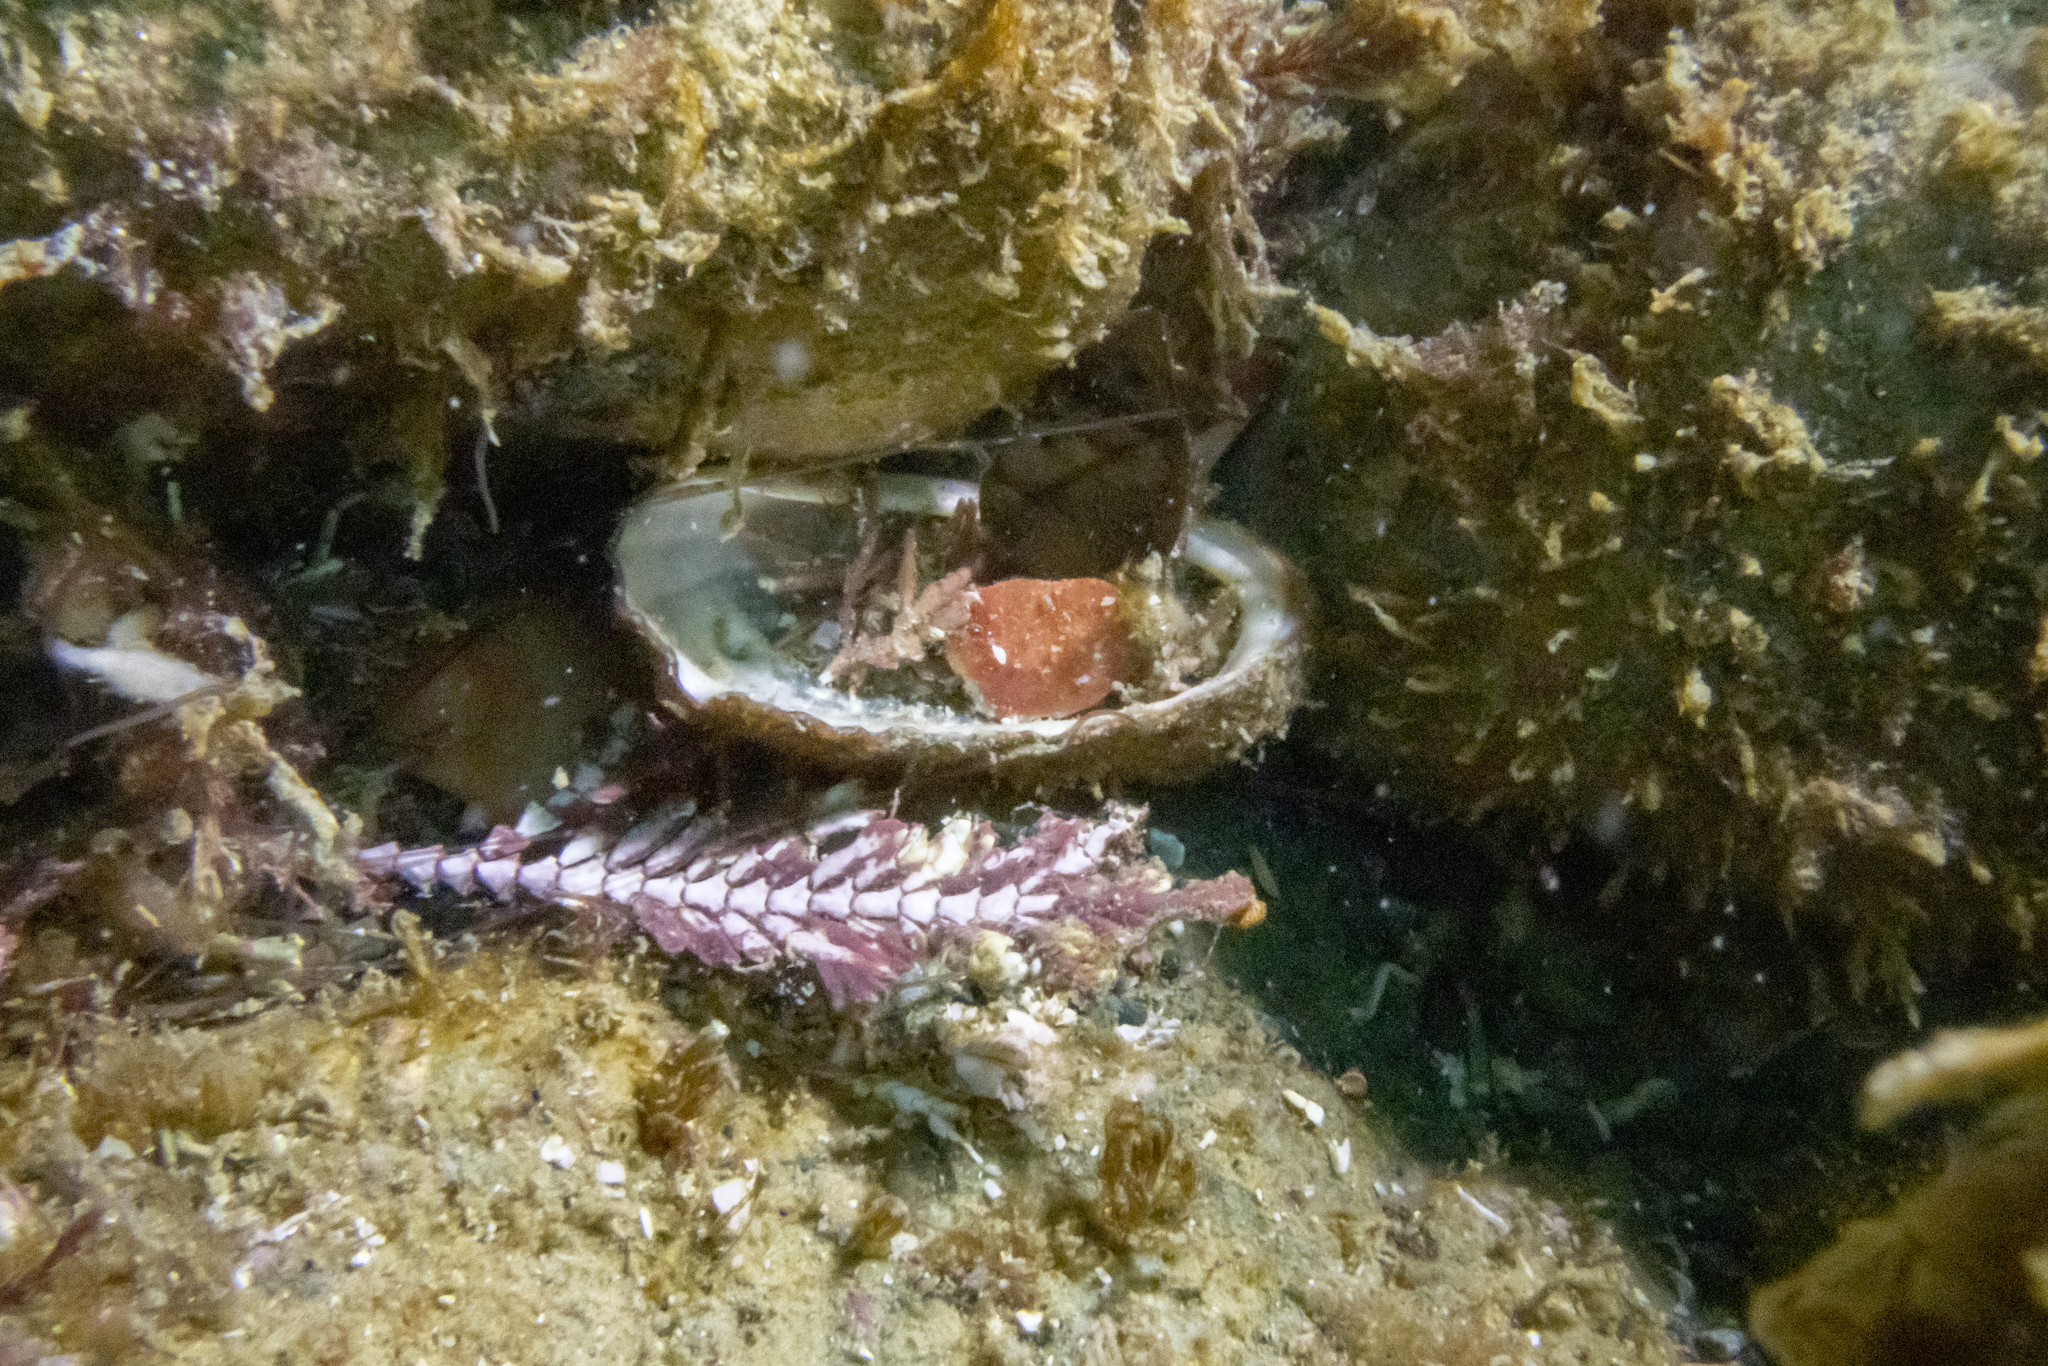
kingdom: Animalia
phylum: Mollusca
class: Gastropoda
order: Lepetellida
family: Haliotidae
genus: Haliotis
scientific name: Haliotis australis
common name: Silver abalone
